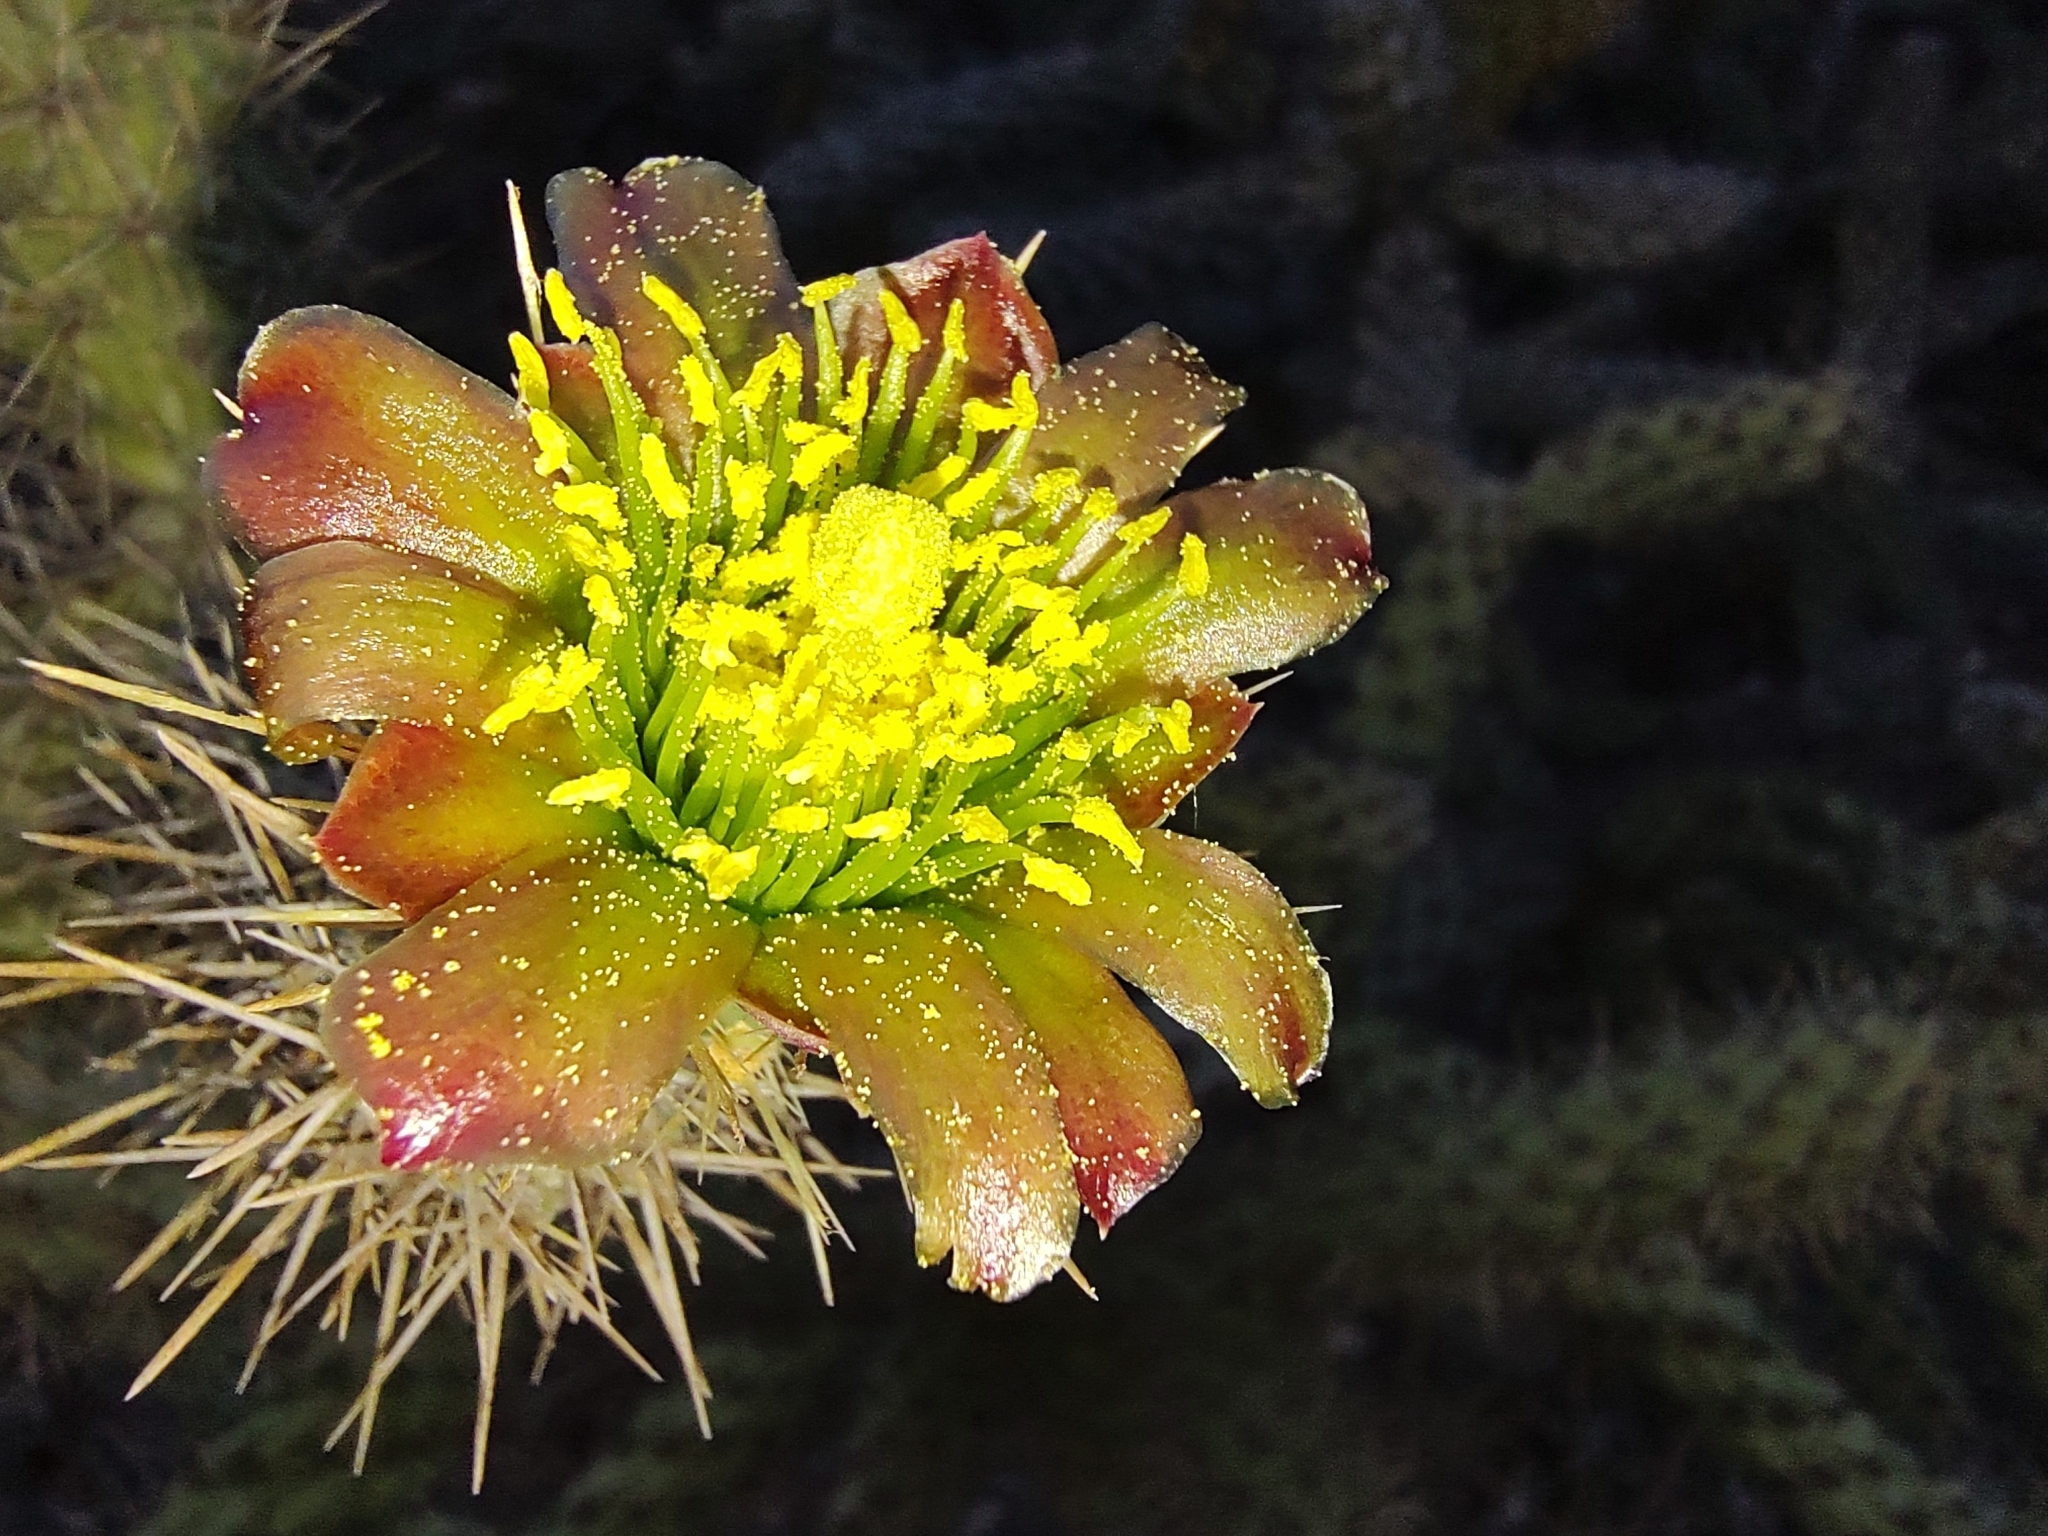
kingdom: Plantae
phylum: Tracheophyta
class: Magnoliopsida
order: Caryophyllales
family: Cactaceae
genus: Cylindropuntia
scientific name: Cylindropuntia alcahes
